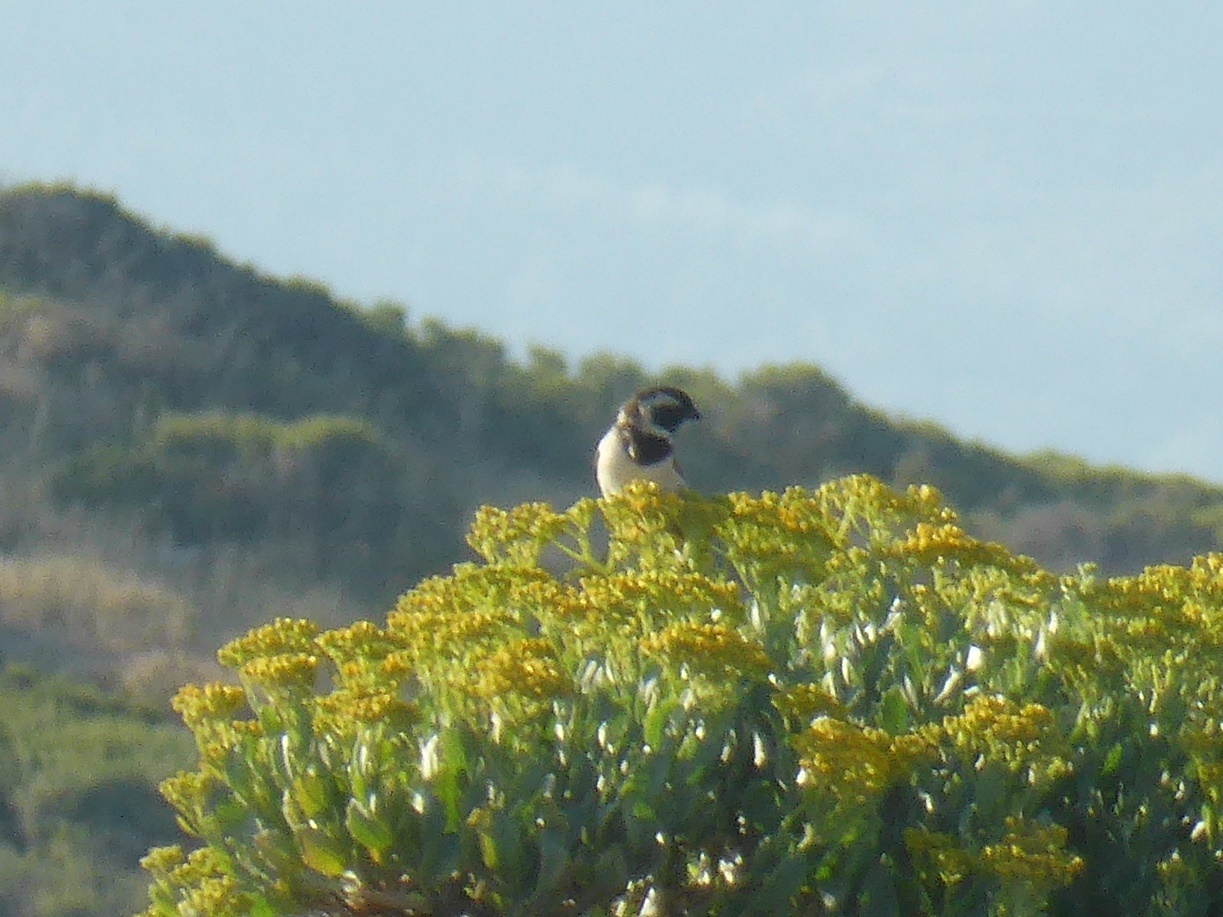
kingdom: Animalia
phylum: Chordata
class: Aves
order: Passeriformes
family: Passeridae
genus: Passer
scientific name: Passer melanurus
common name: Cape sparrow
